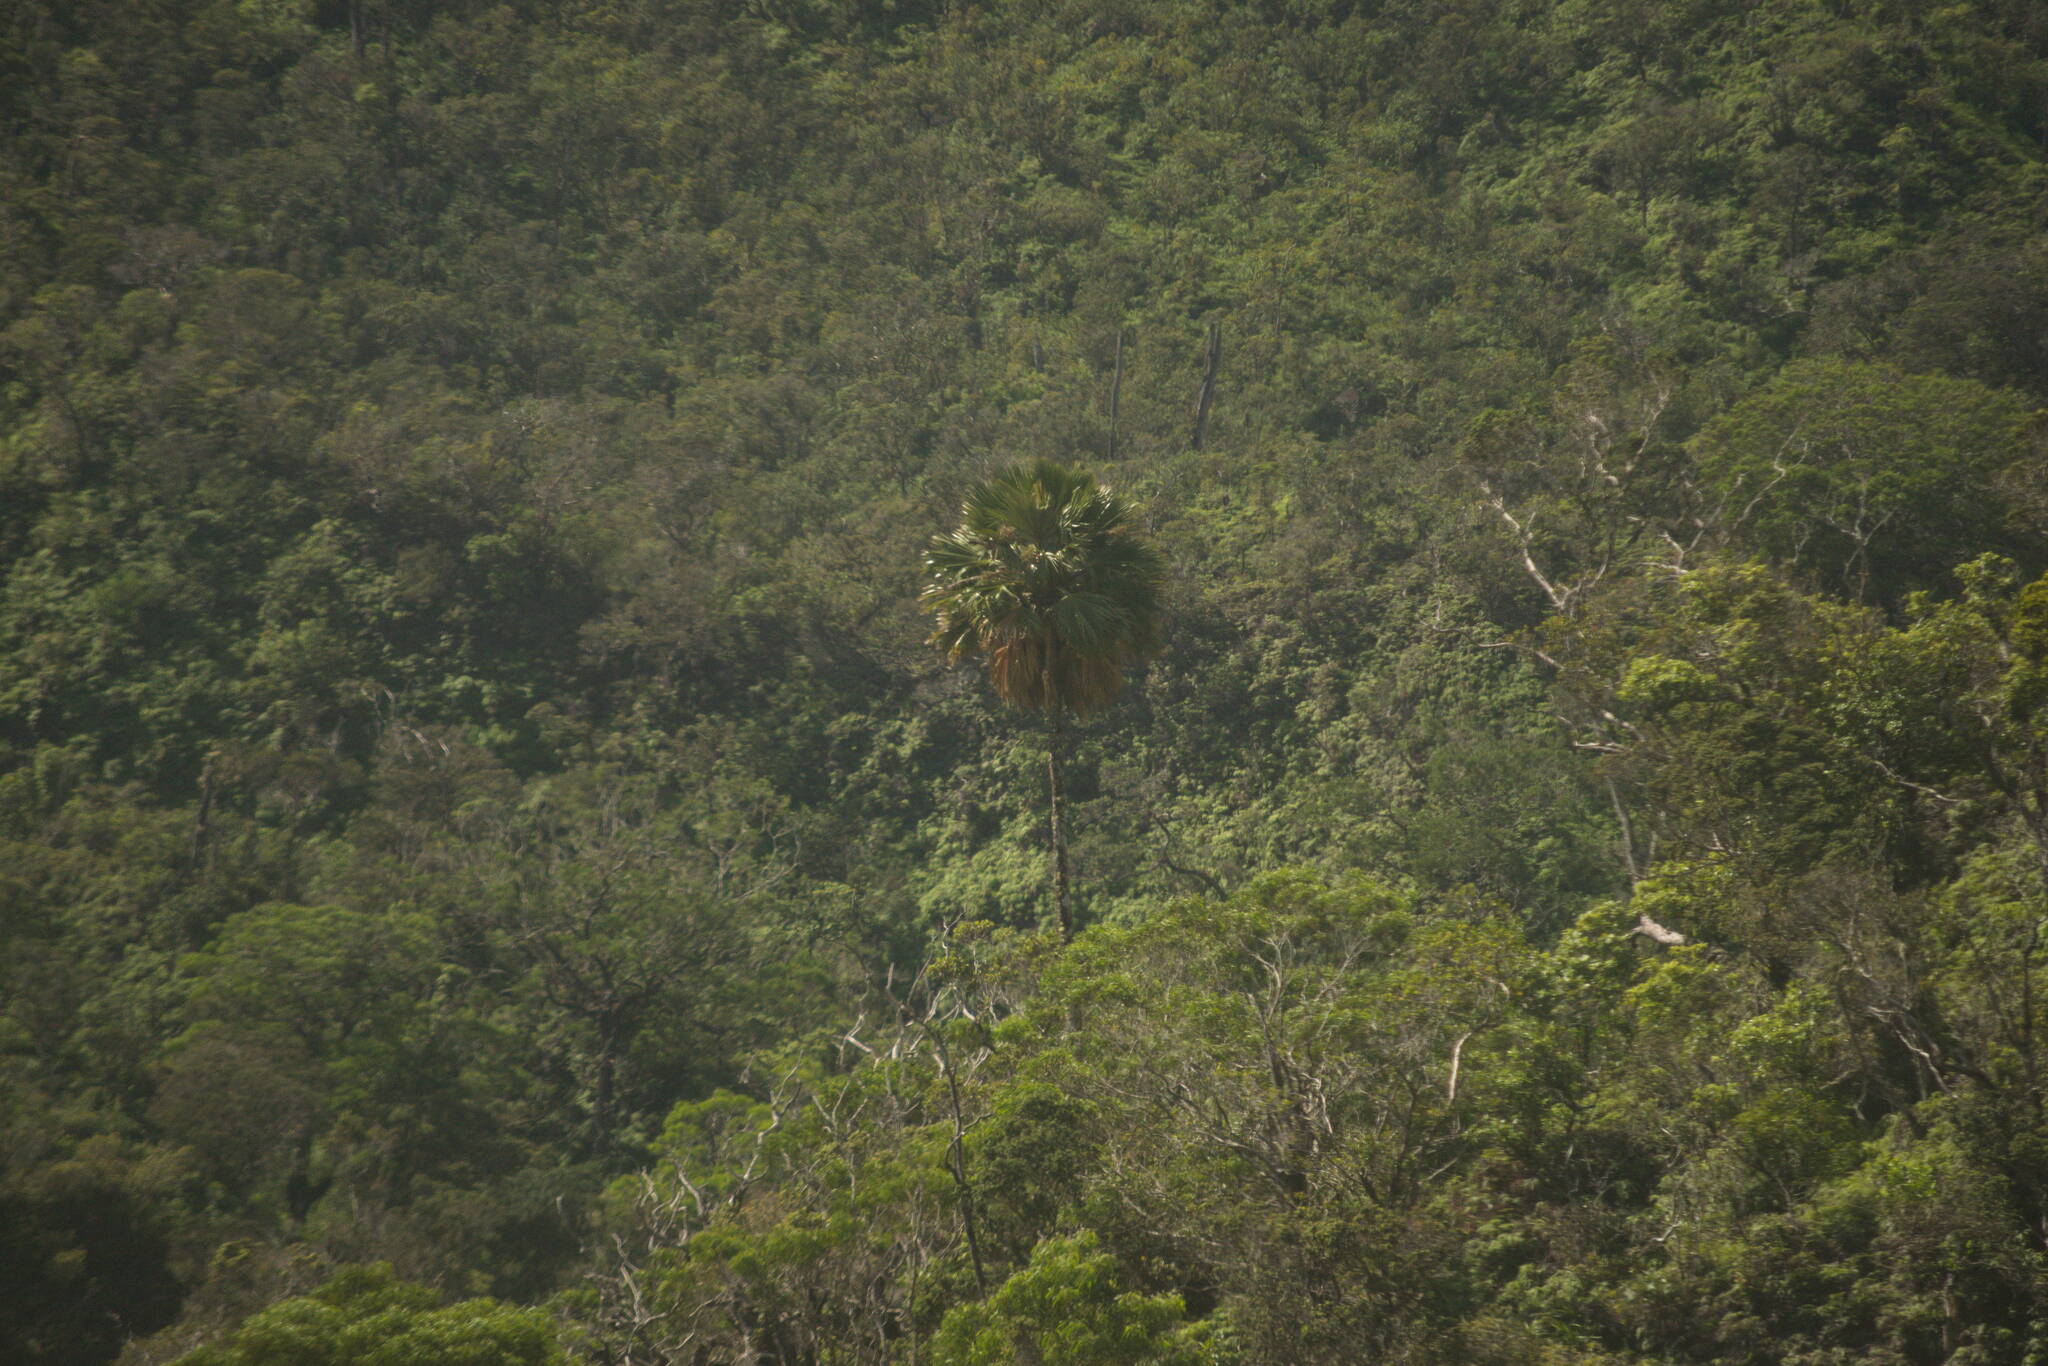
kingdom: Plantae
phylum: Tracheophyta
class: Liliopsida
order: Arecales
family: Arecaceae
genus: Pritchardia
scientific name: Pritchardia martii
